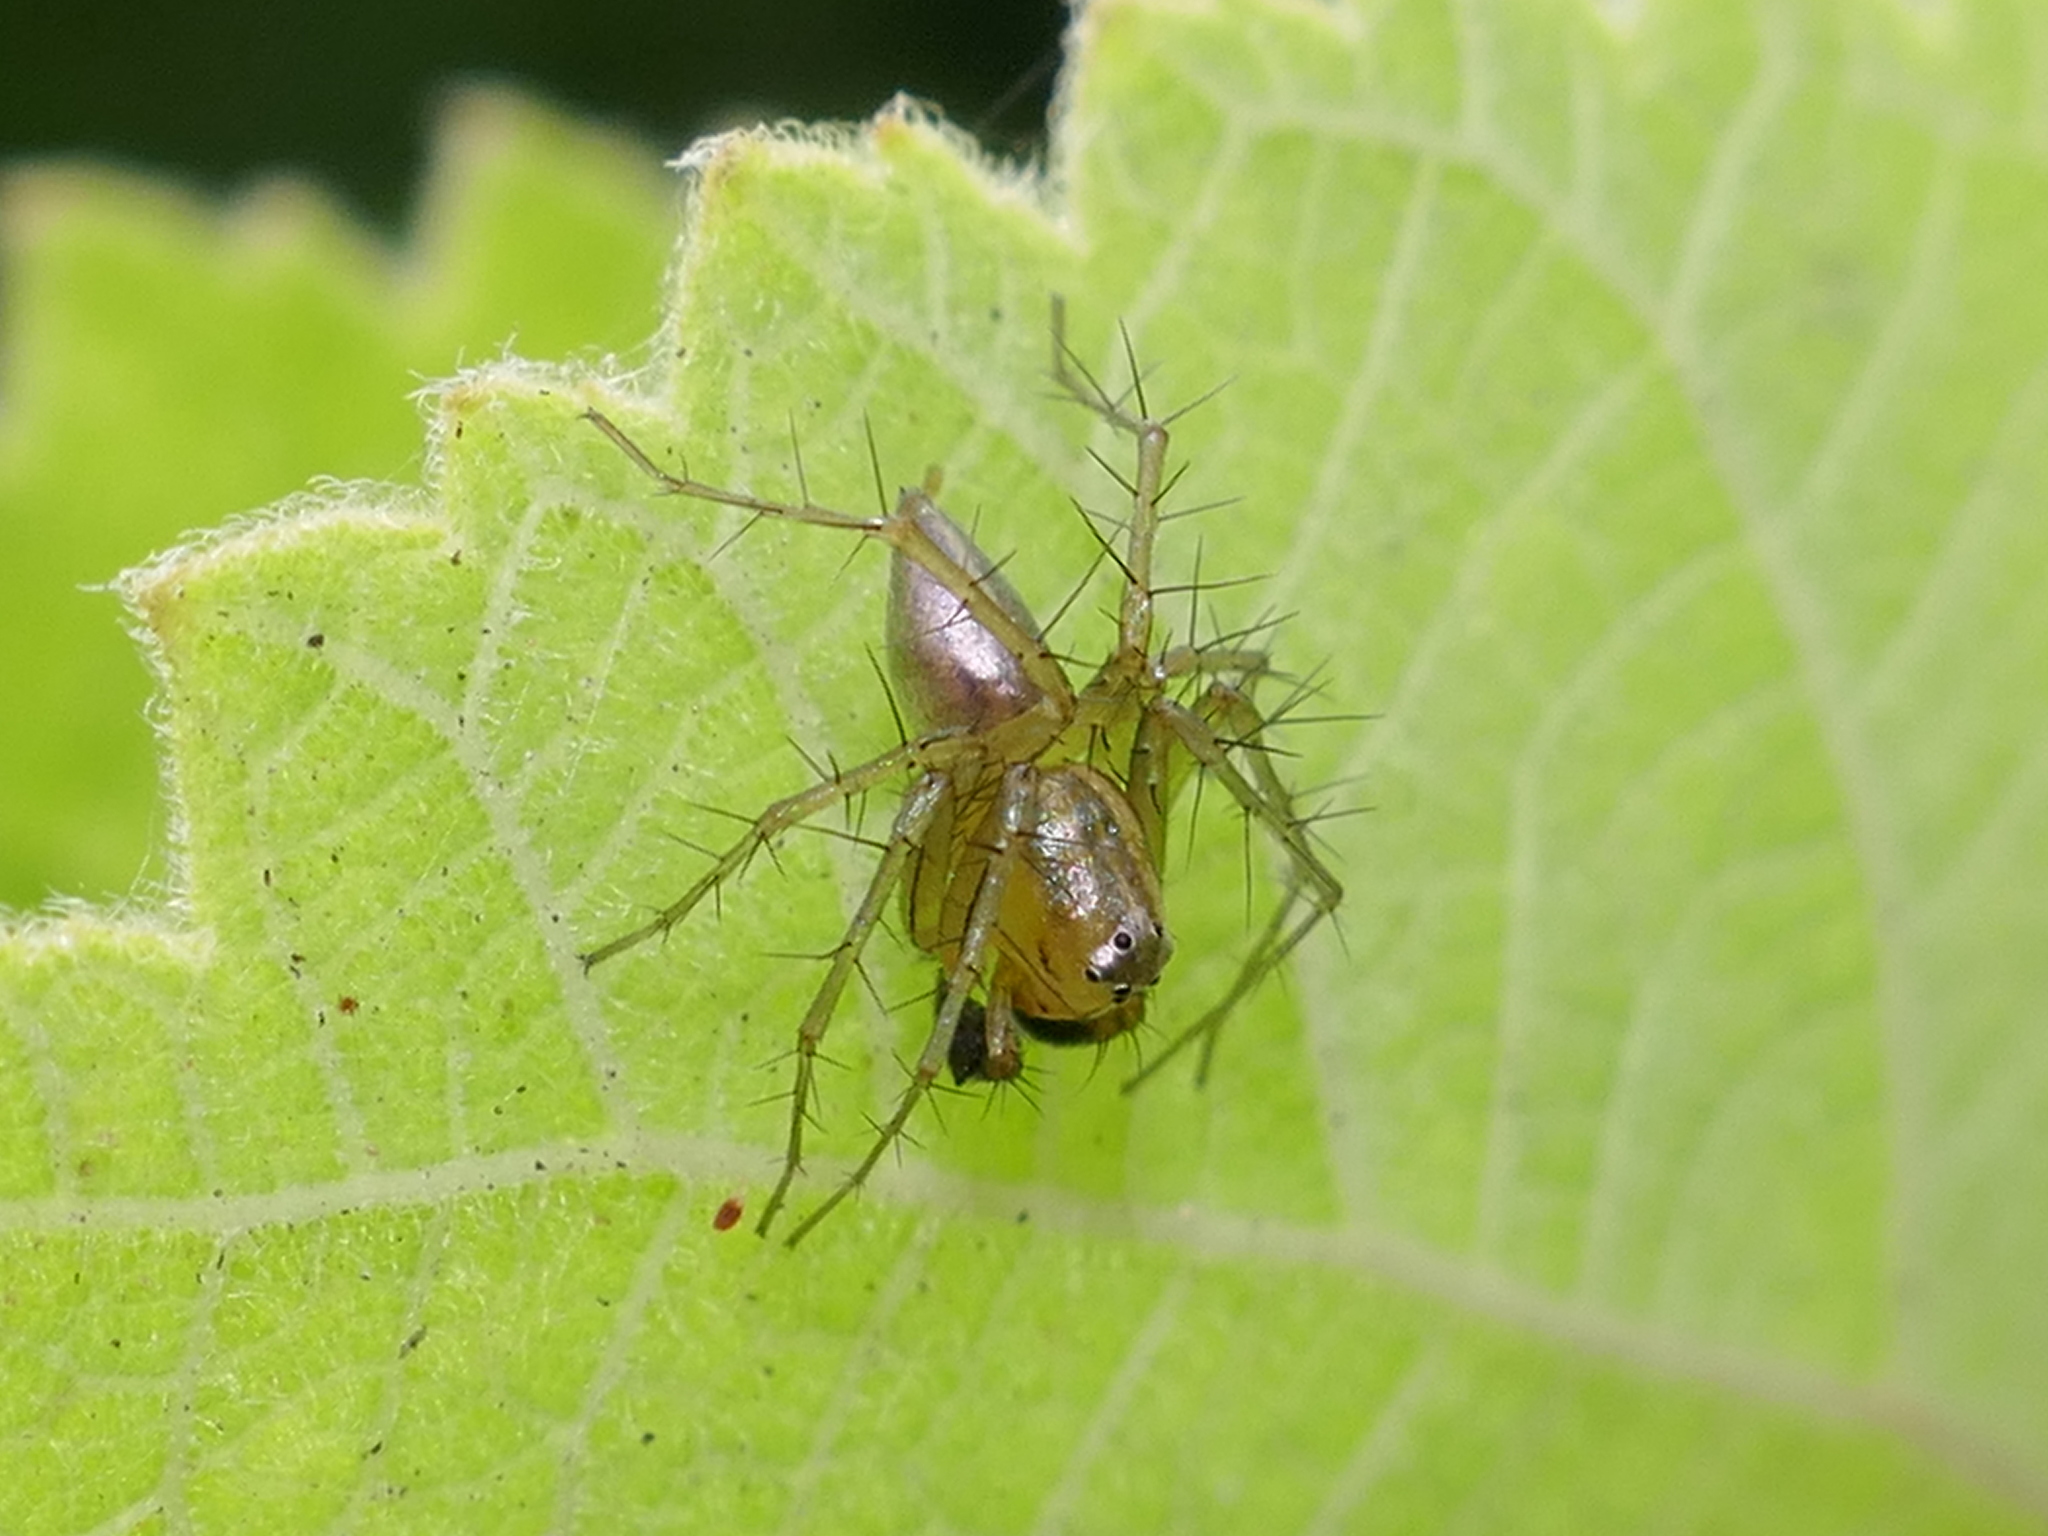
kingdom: Animalia
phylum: Arthropoda
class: Arachnida
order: Araneae
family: Oxyopidae
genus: Oxyopes
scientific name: Oxyopes salticus
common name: Lynx spiders
